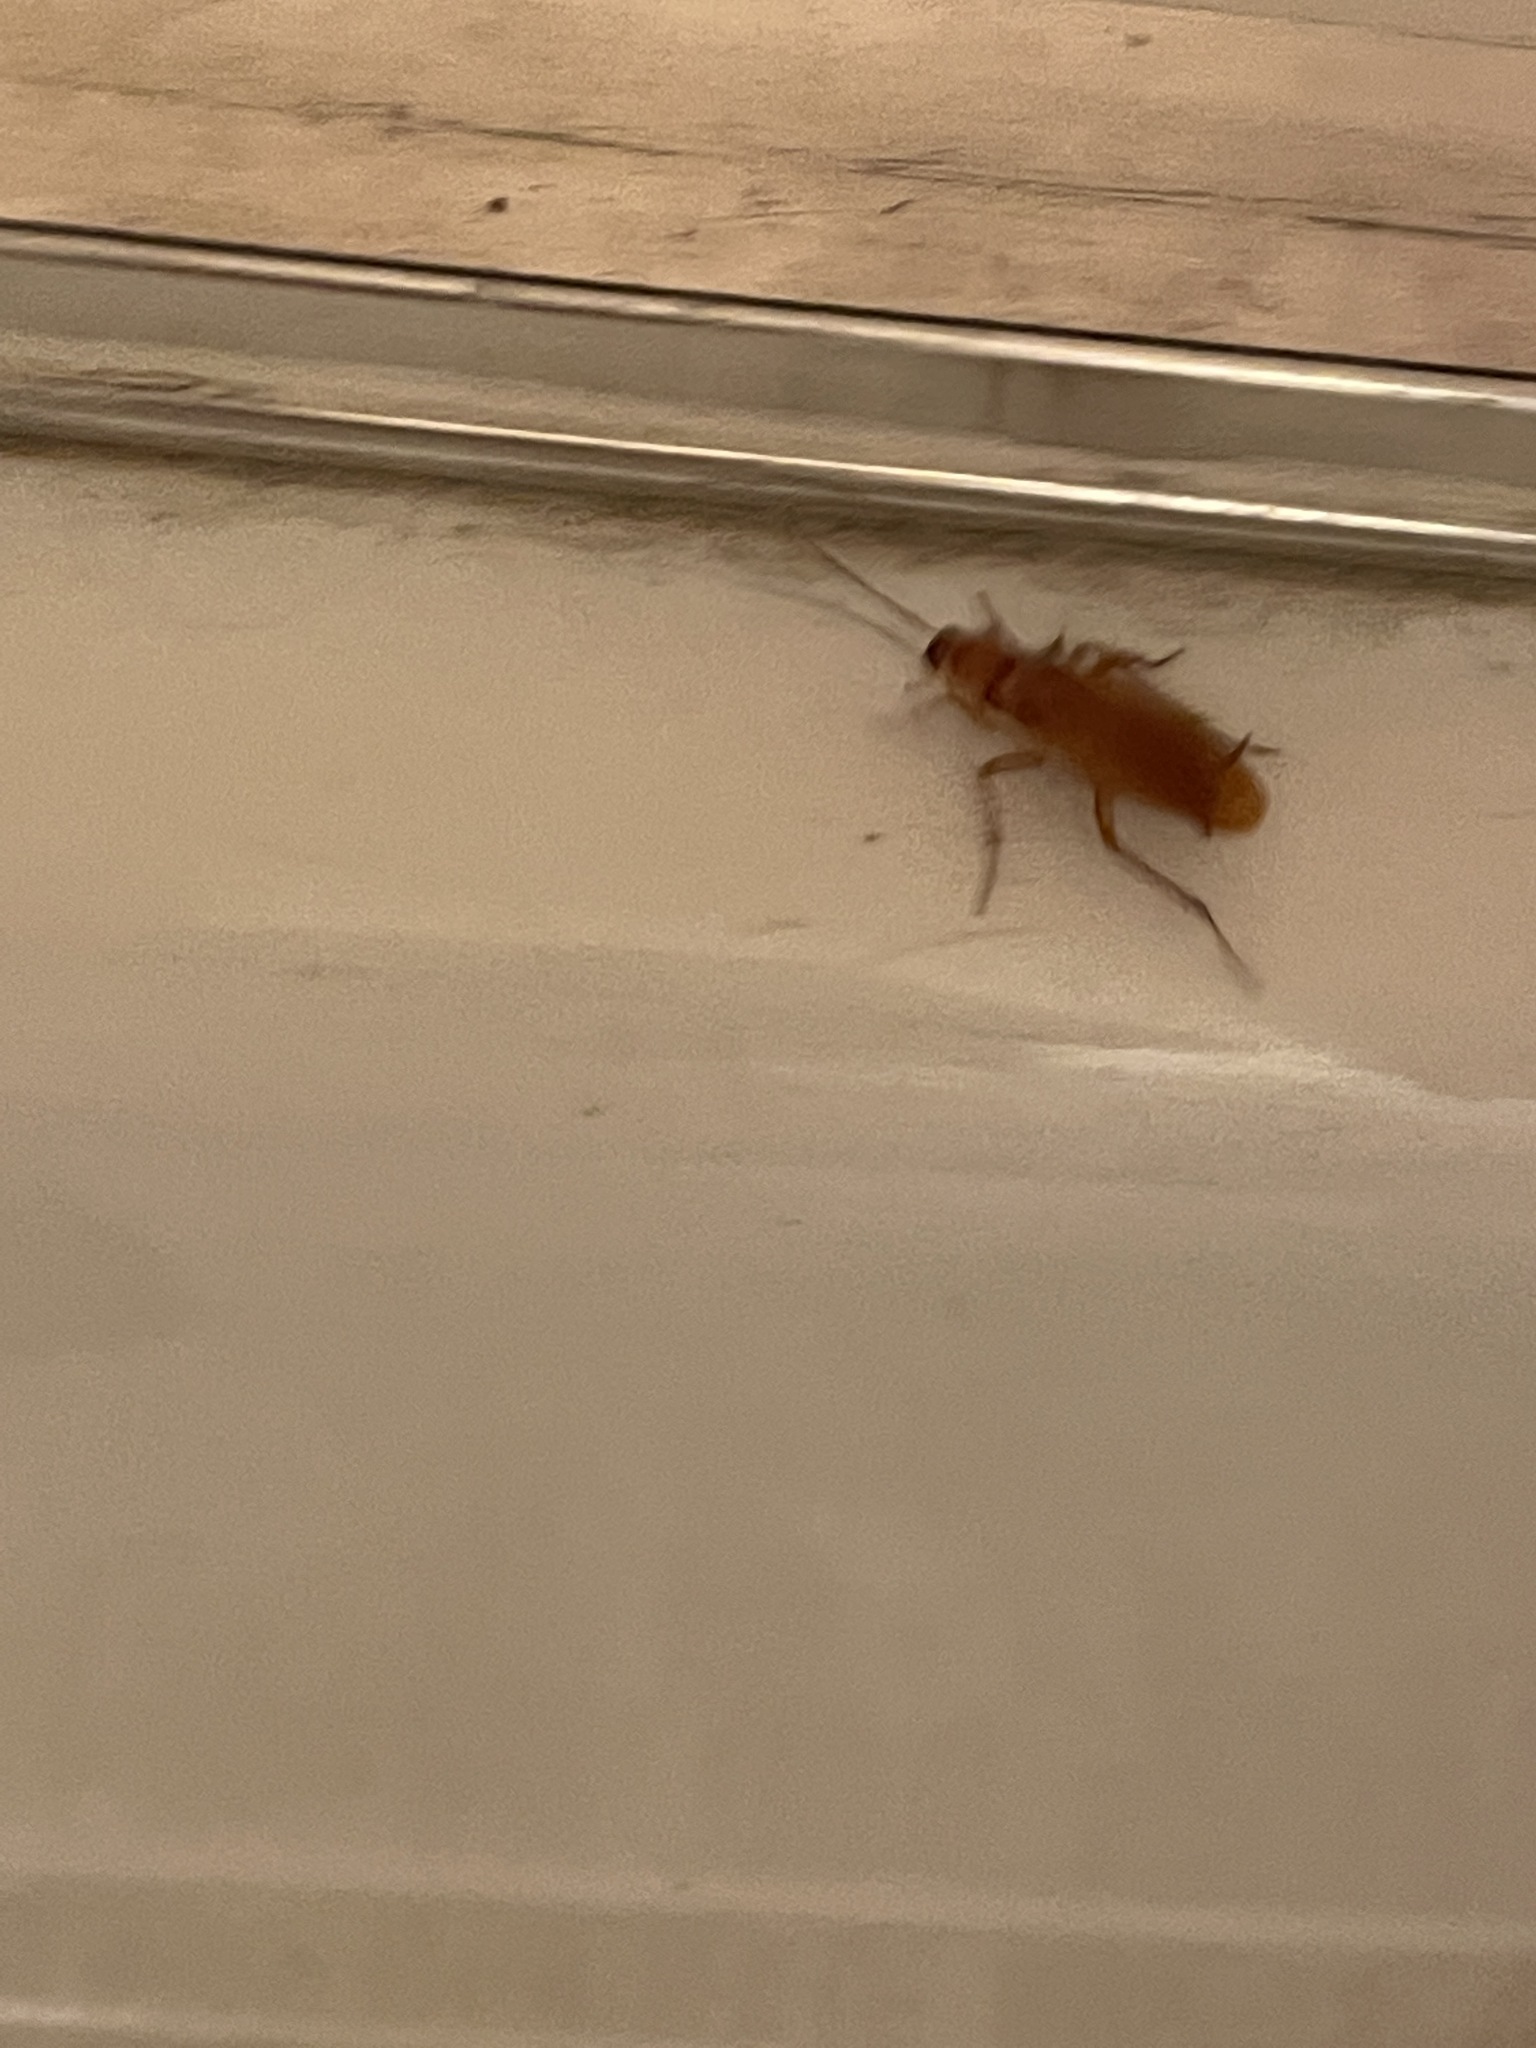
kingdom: Animalia
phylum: Arthropoda
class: Insecta
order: Blattodea
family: Blattidae
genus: Periplaneta
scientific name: Periplaneta lateralis
